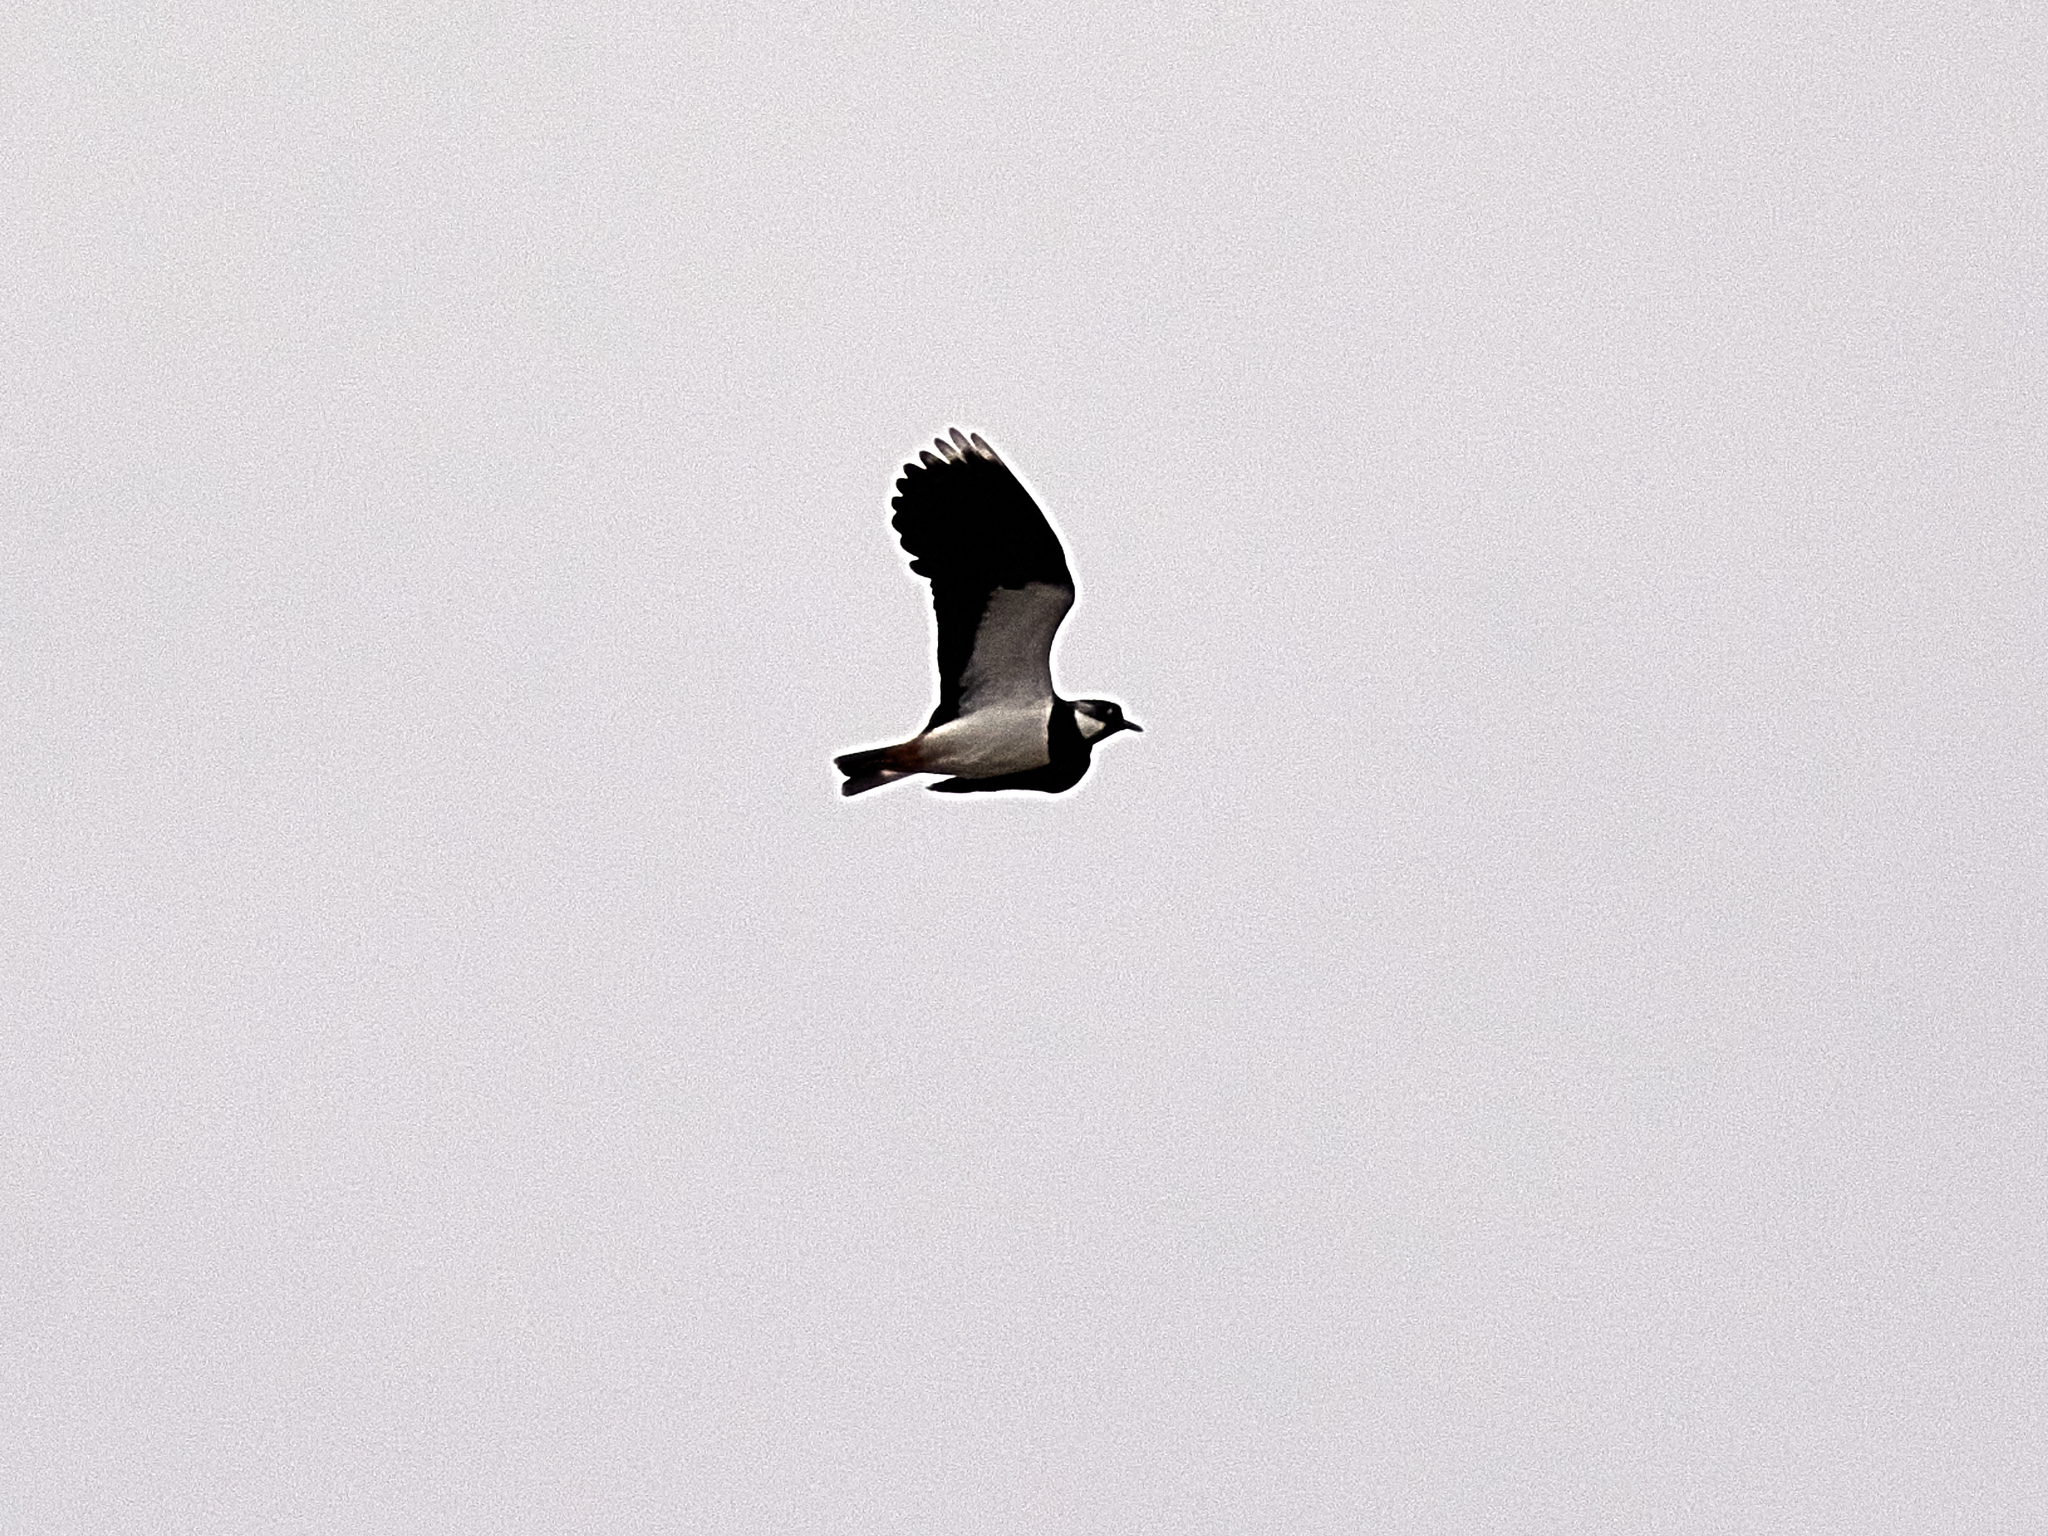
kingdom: Animalia
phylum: Chordata
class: Aves
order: Charadriiformes
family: Charadriidae
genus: Vanellus
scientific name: Vanellus vanellus
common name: Northern lapwing
